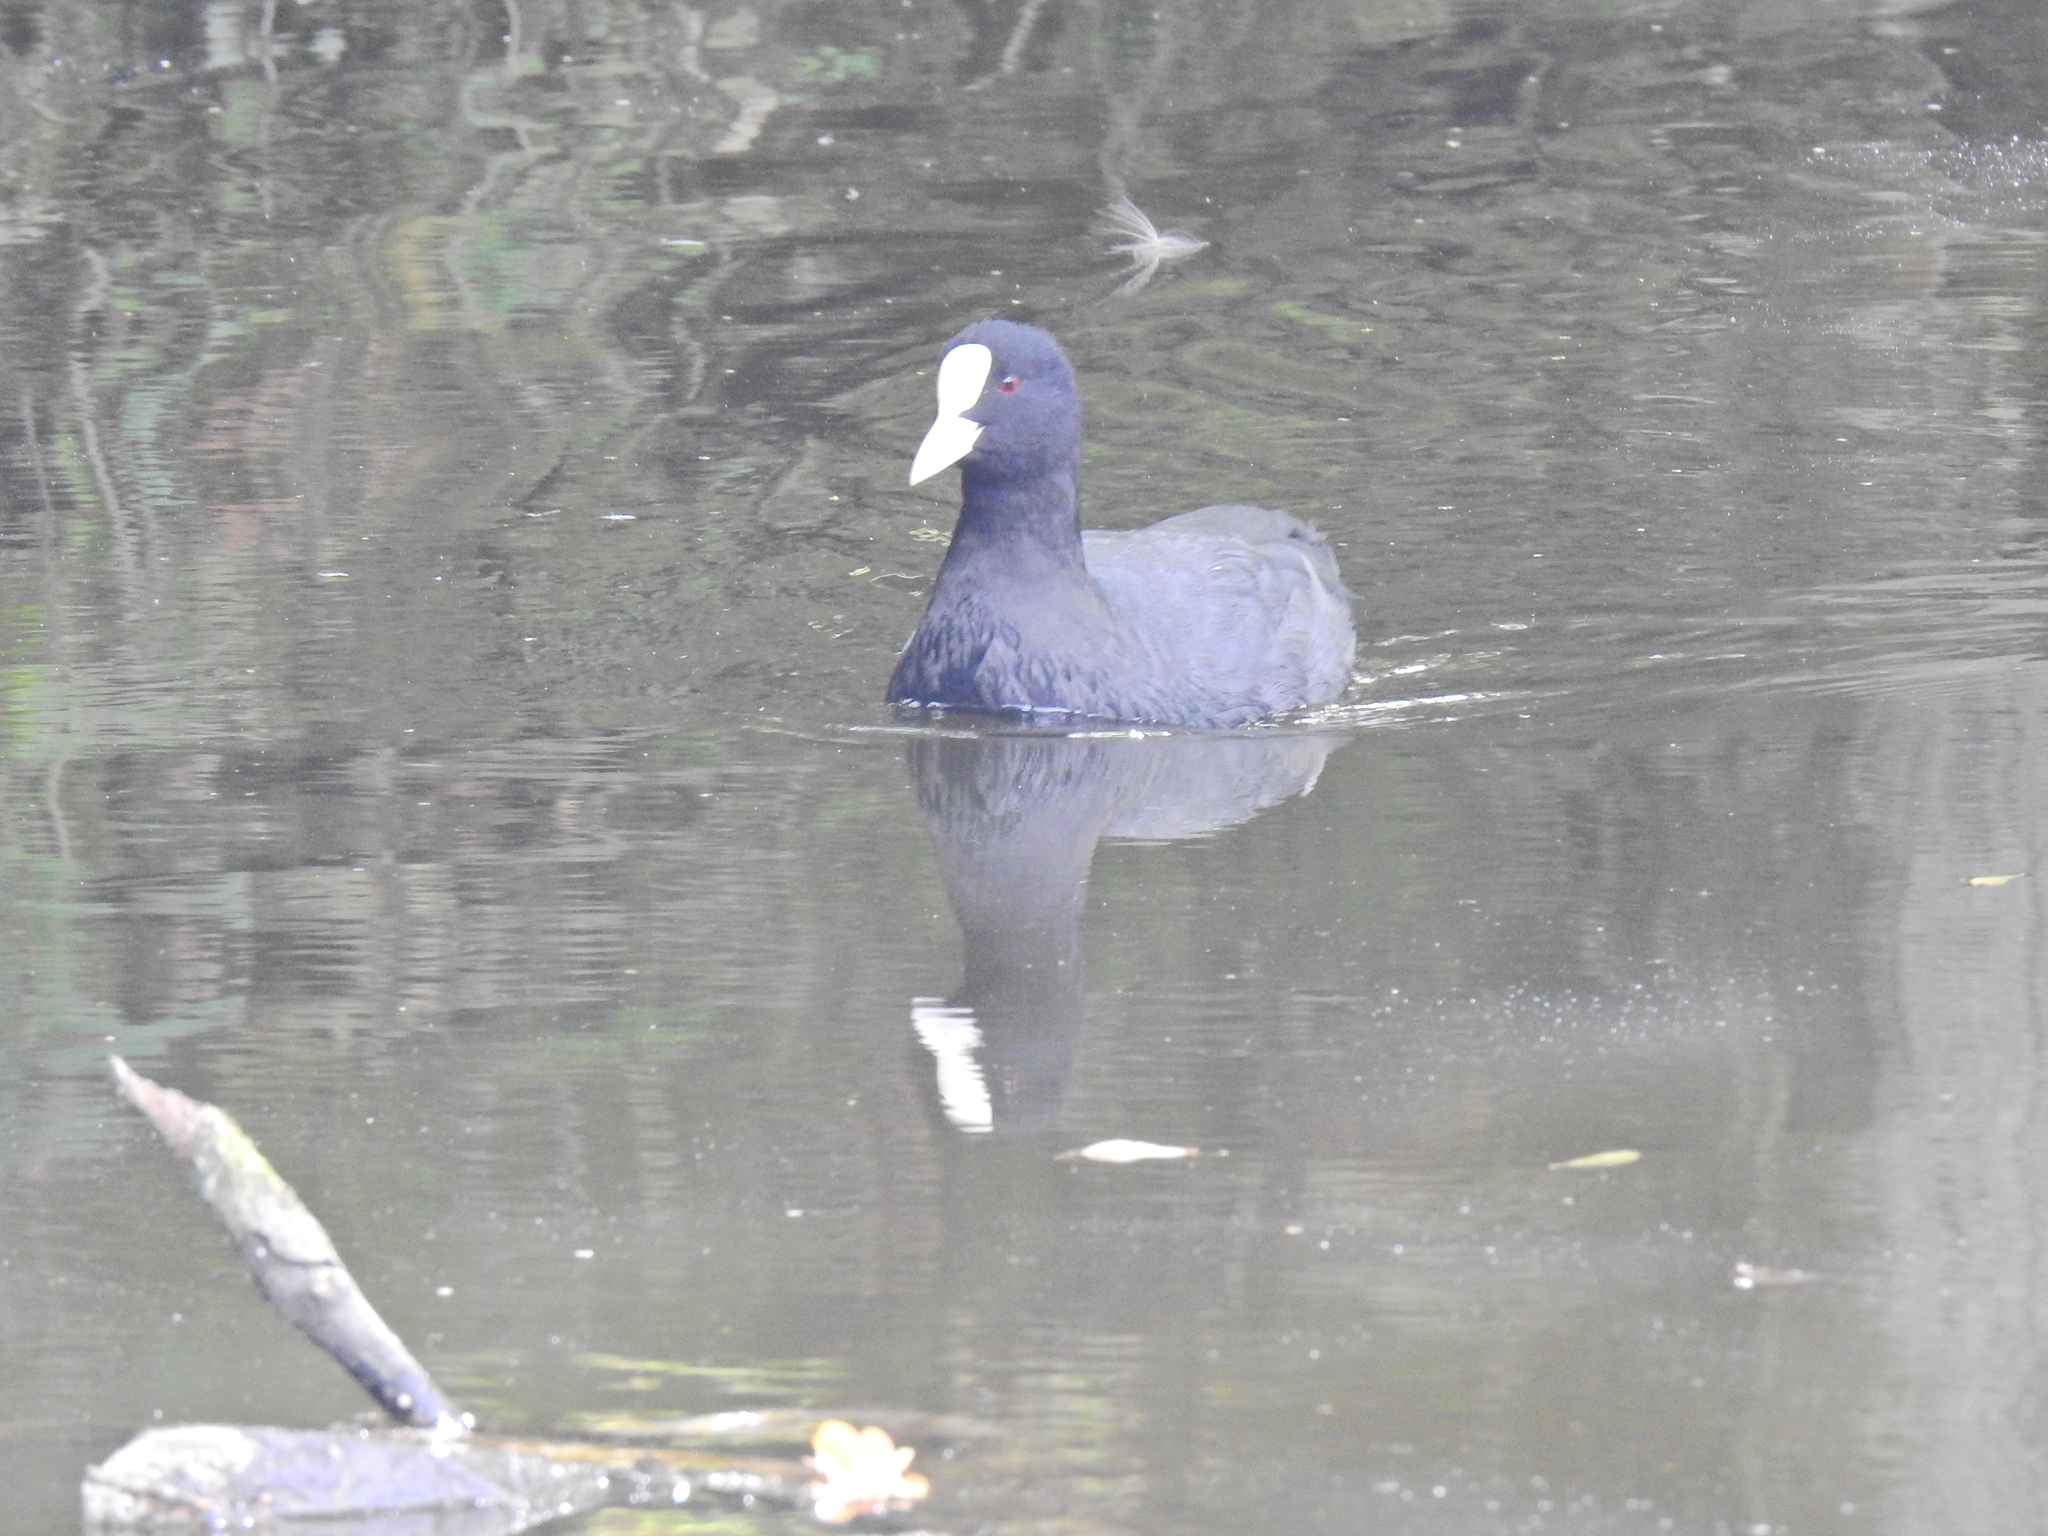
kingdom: Animalia
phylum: Chordata
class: Aves
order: Gruiformes
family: Rallidae
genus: Fulica
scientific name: Fulica atra
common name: Eurasian coot
